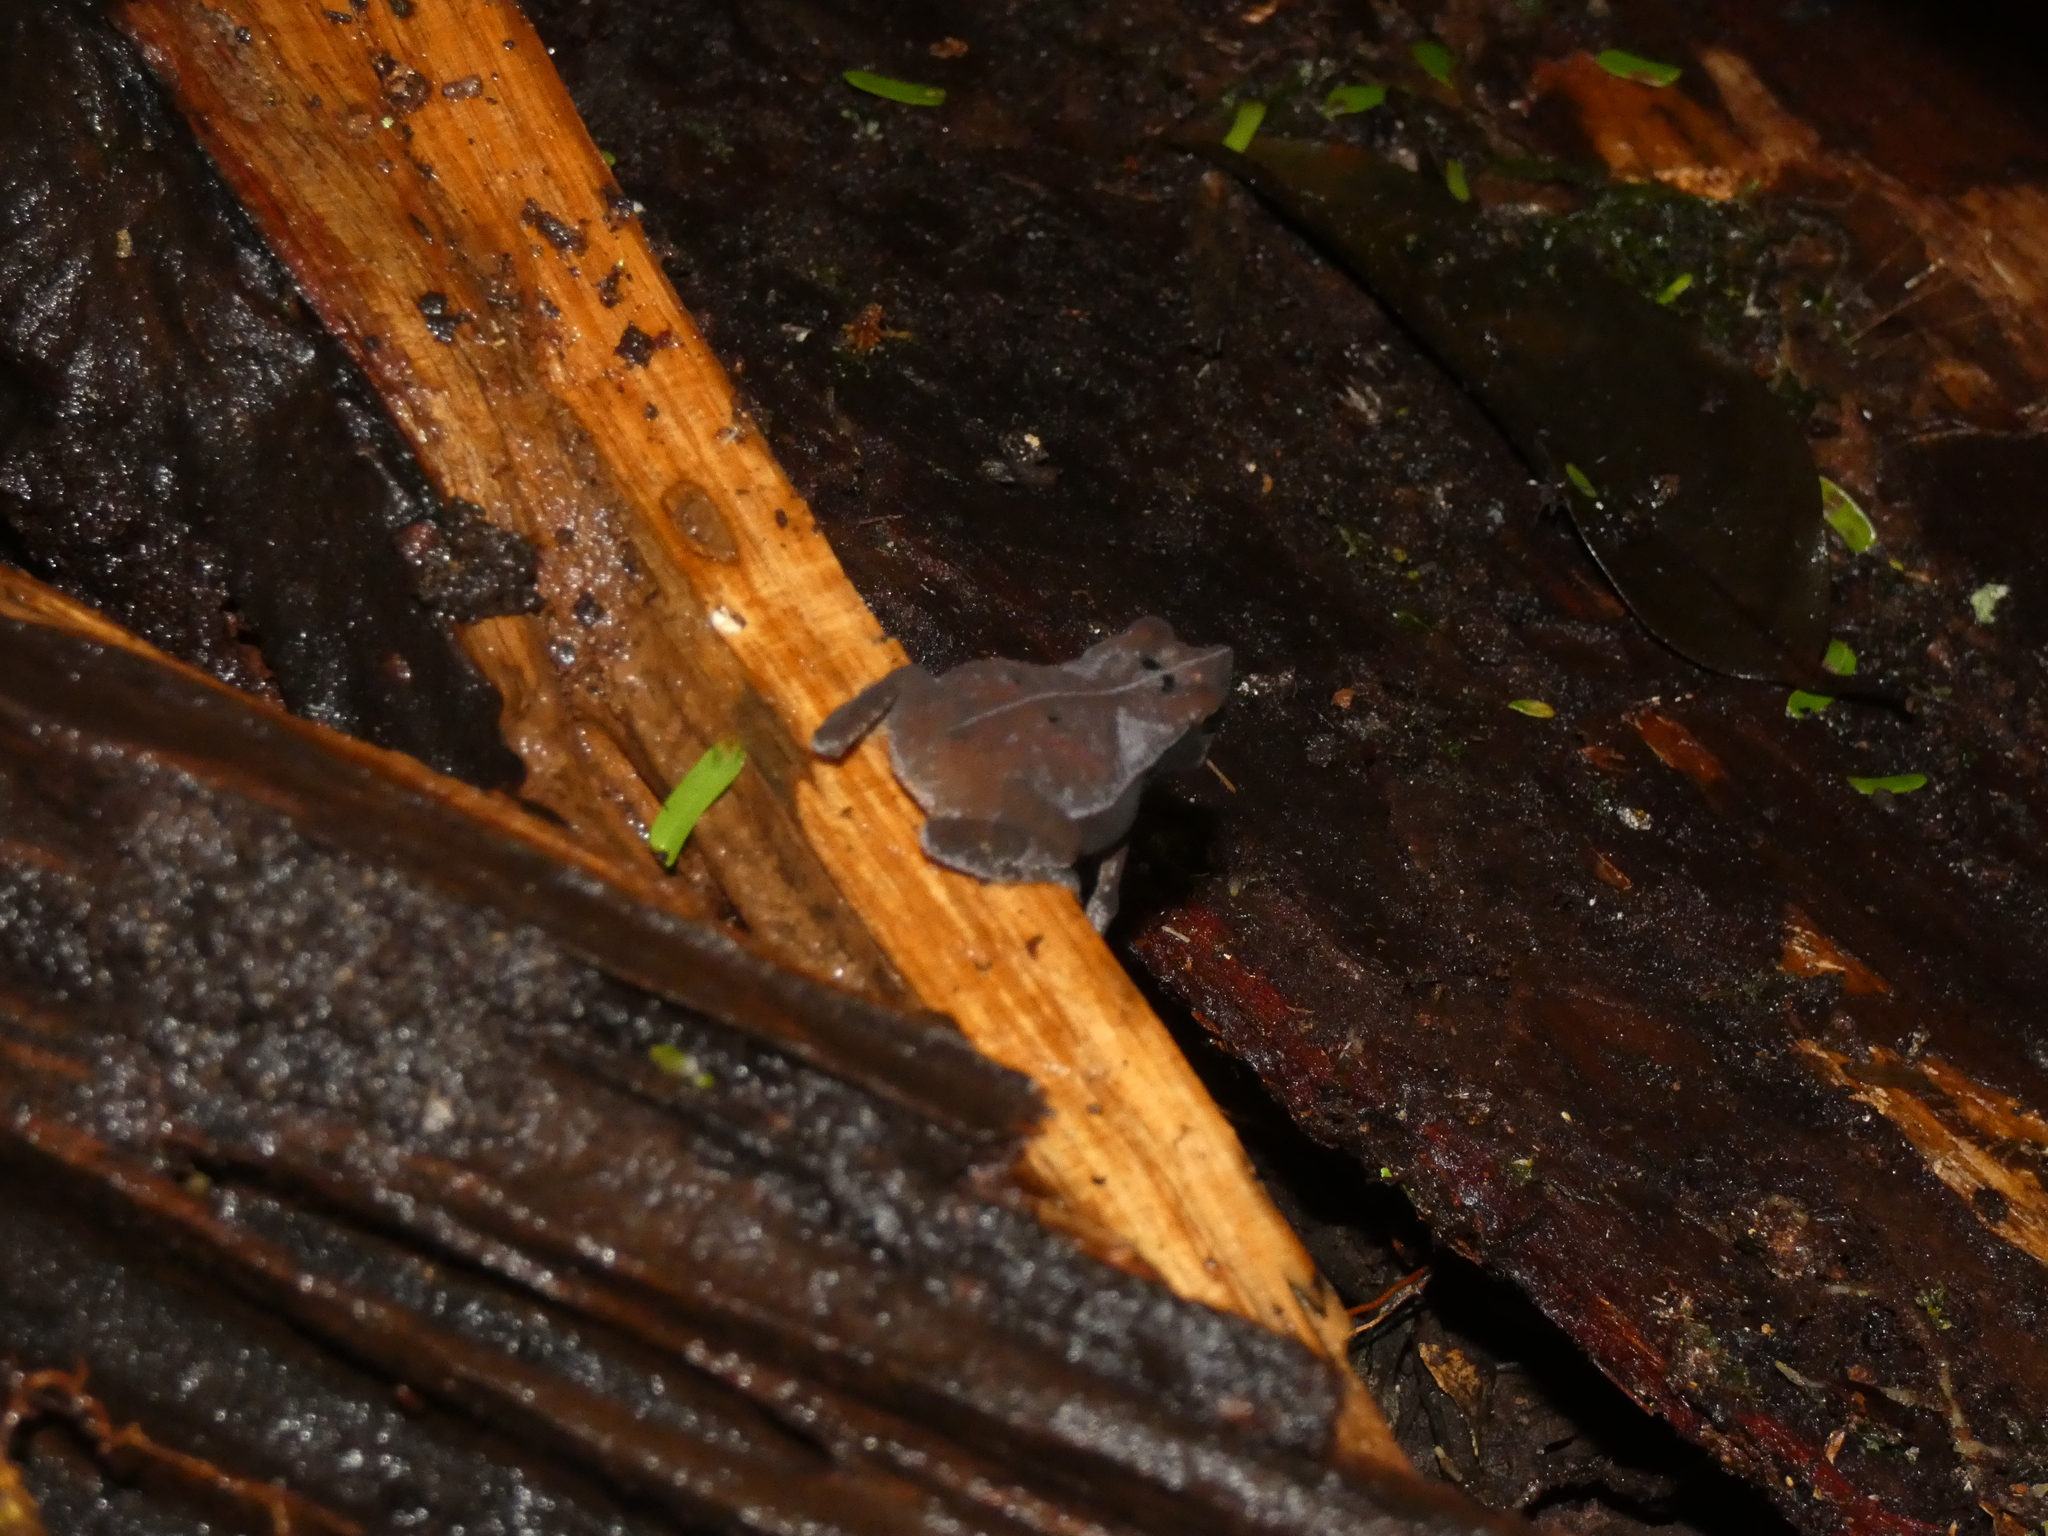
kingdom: Animalia
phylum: Chordata
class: Amphibia
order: Anura
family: Bufonidae
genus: Rhinella
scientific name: Rhinella margaritifera
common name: Mitred toad
